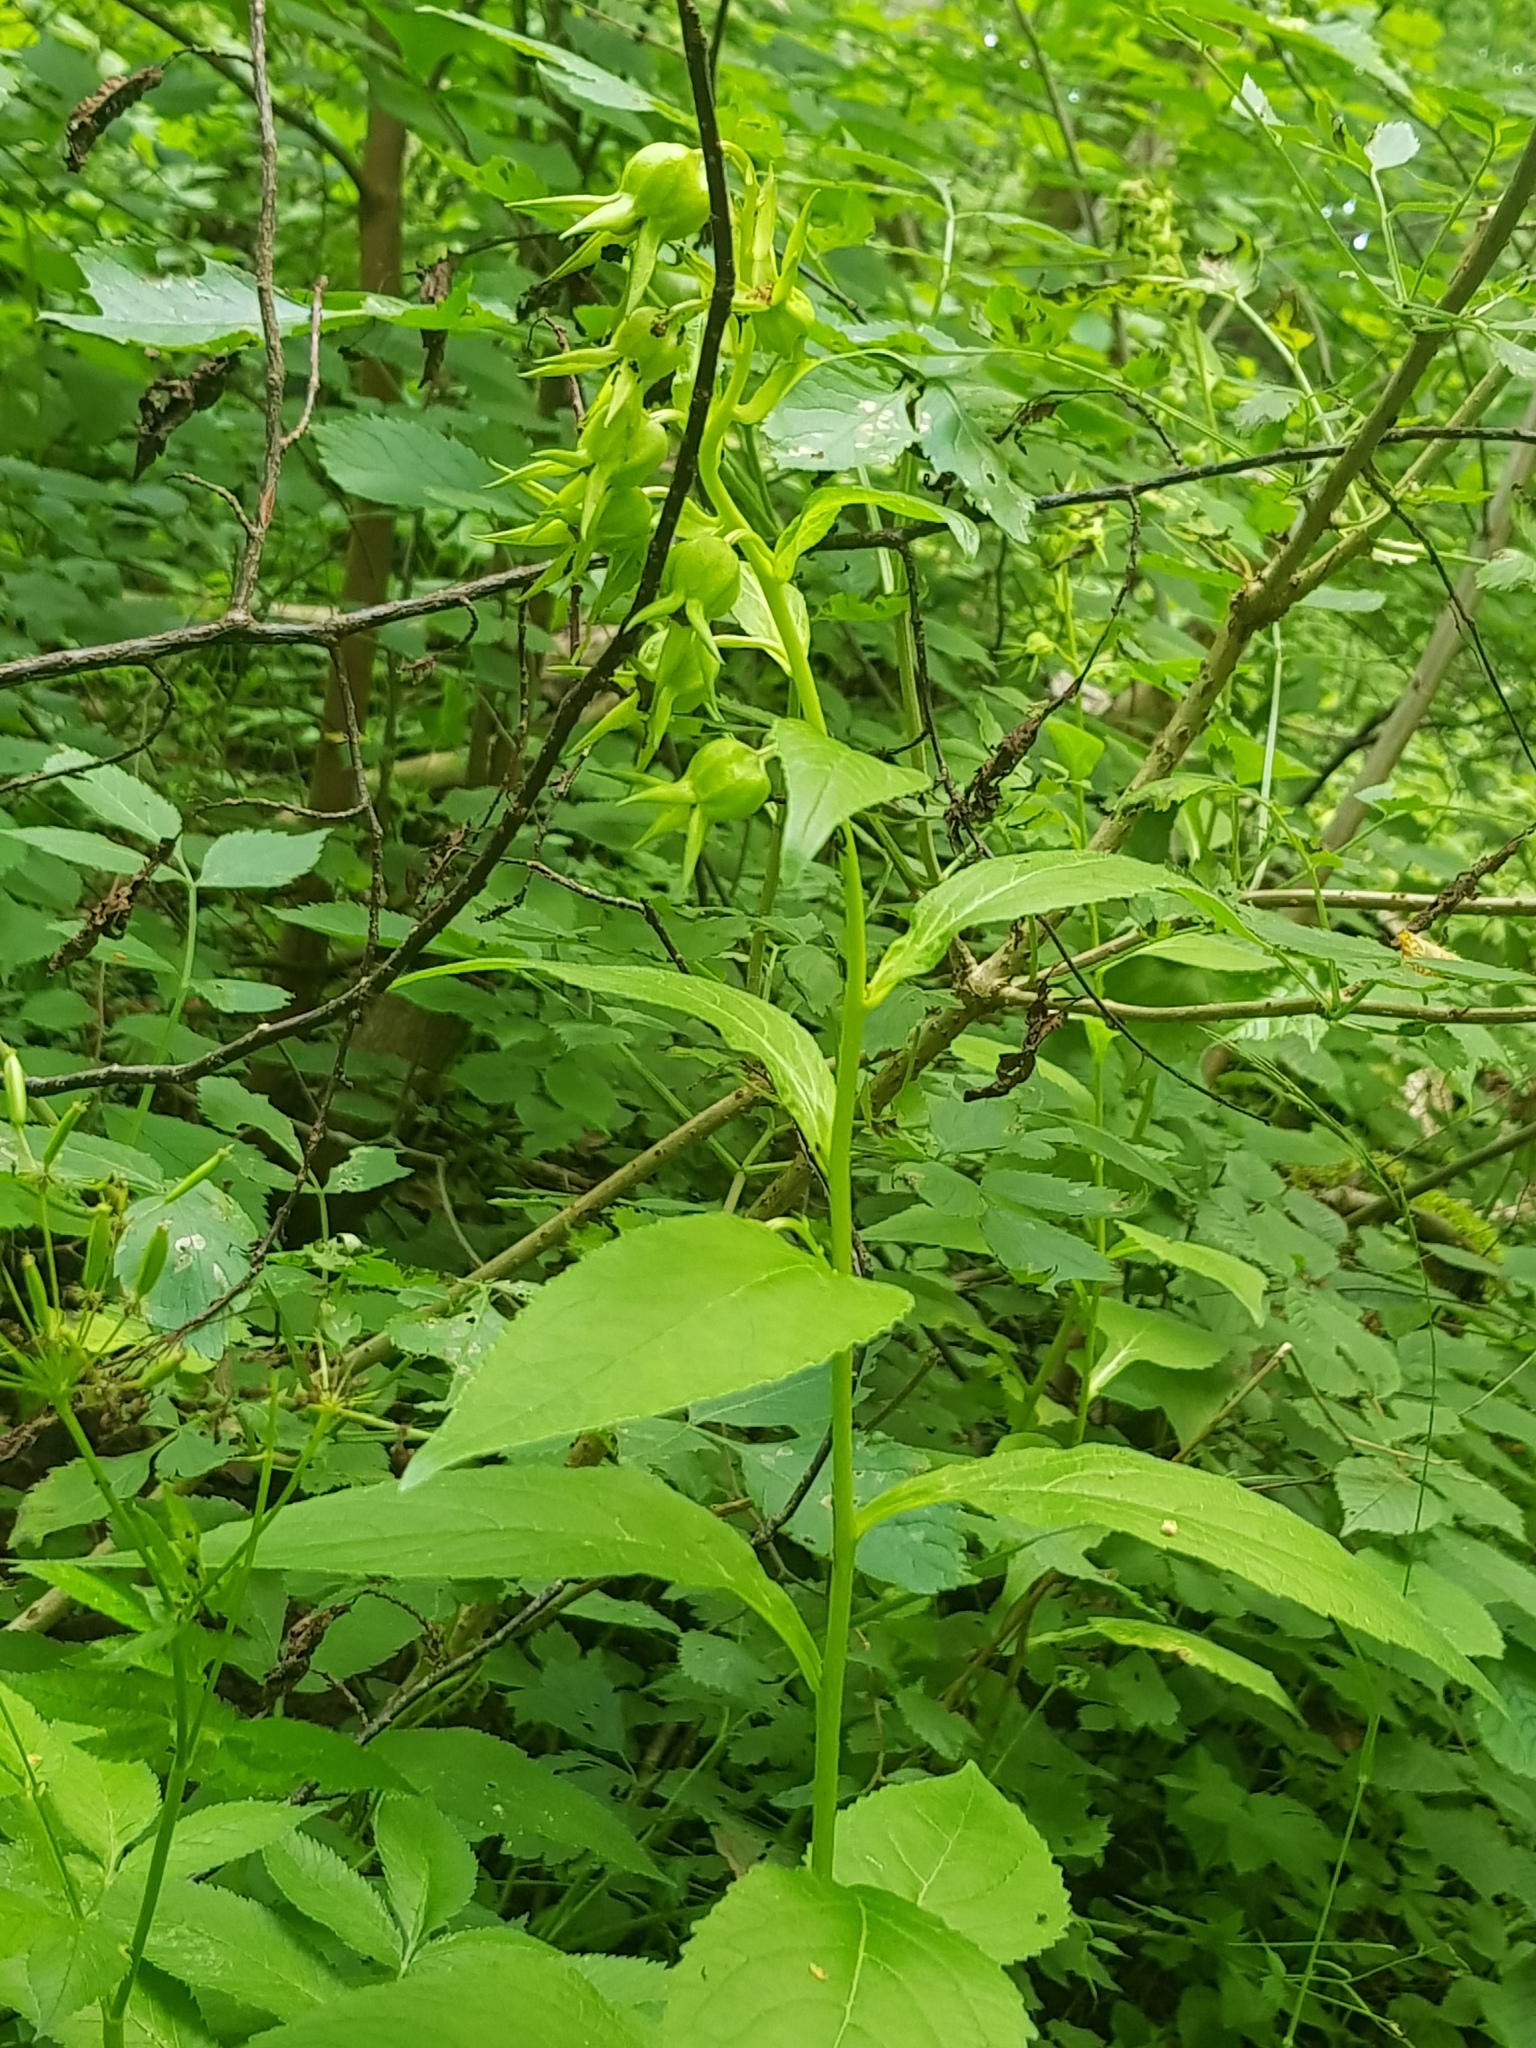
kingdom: Plantae
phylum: Tracheophyta
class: Magnoliopsida
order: Asterales
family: Campanulaceae
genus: Campanula
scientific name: Campanula latifolia
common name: Giant bellflower
